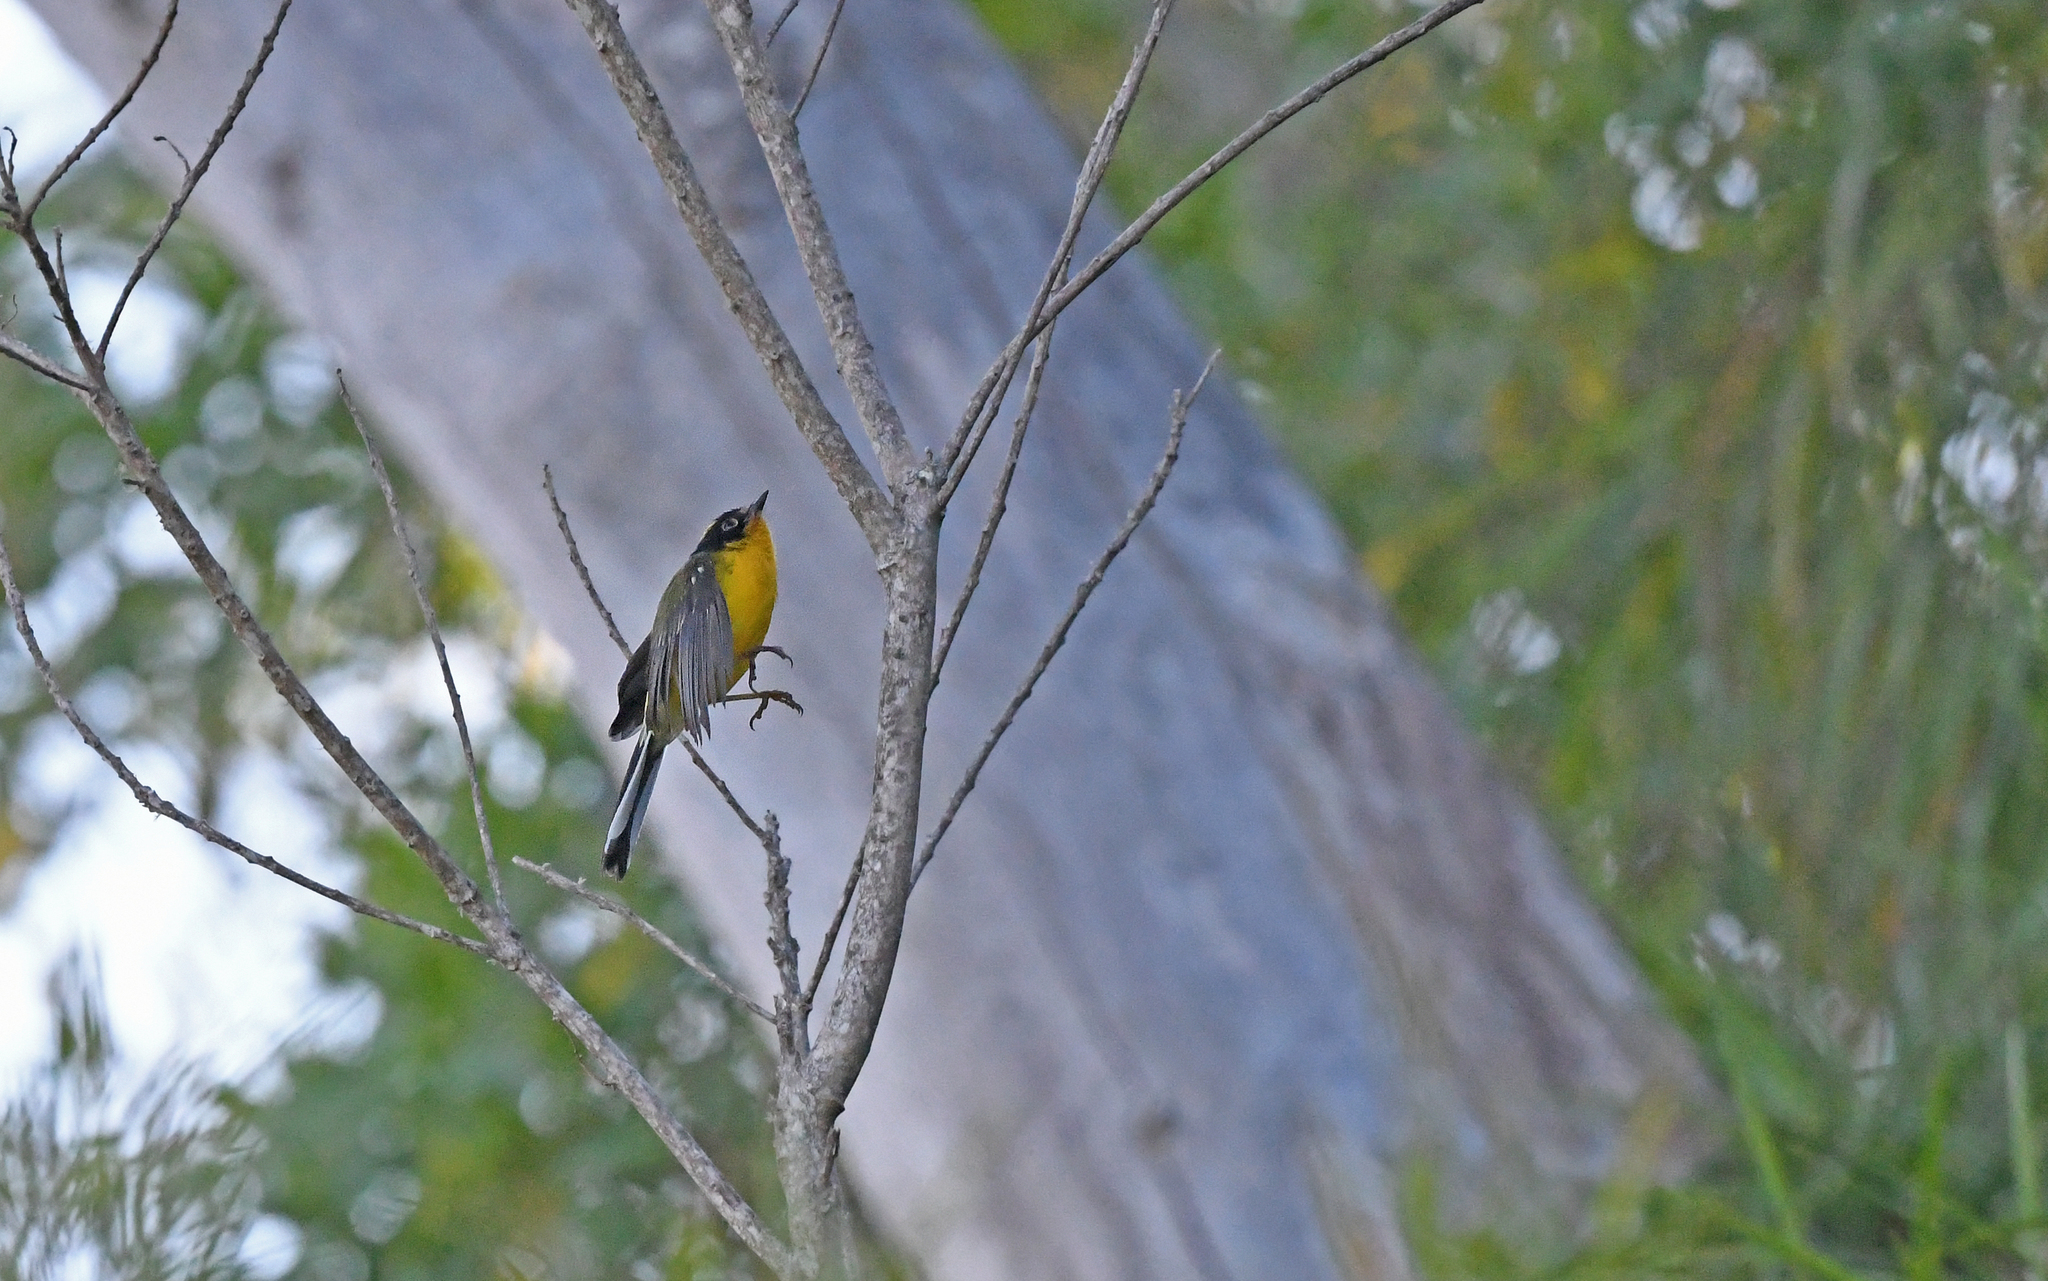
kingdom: Animalia
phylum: Chordata
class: Aves
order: Passeriformes
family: Parulidae
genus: Myioborus
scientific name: Myioborus flavivertex
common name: Yellow-crowned whitestart
